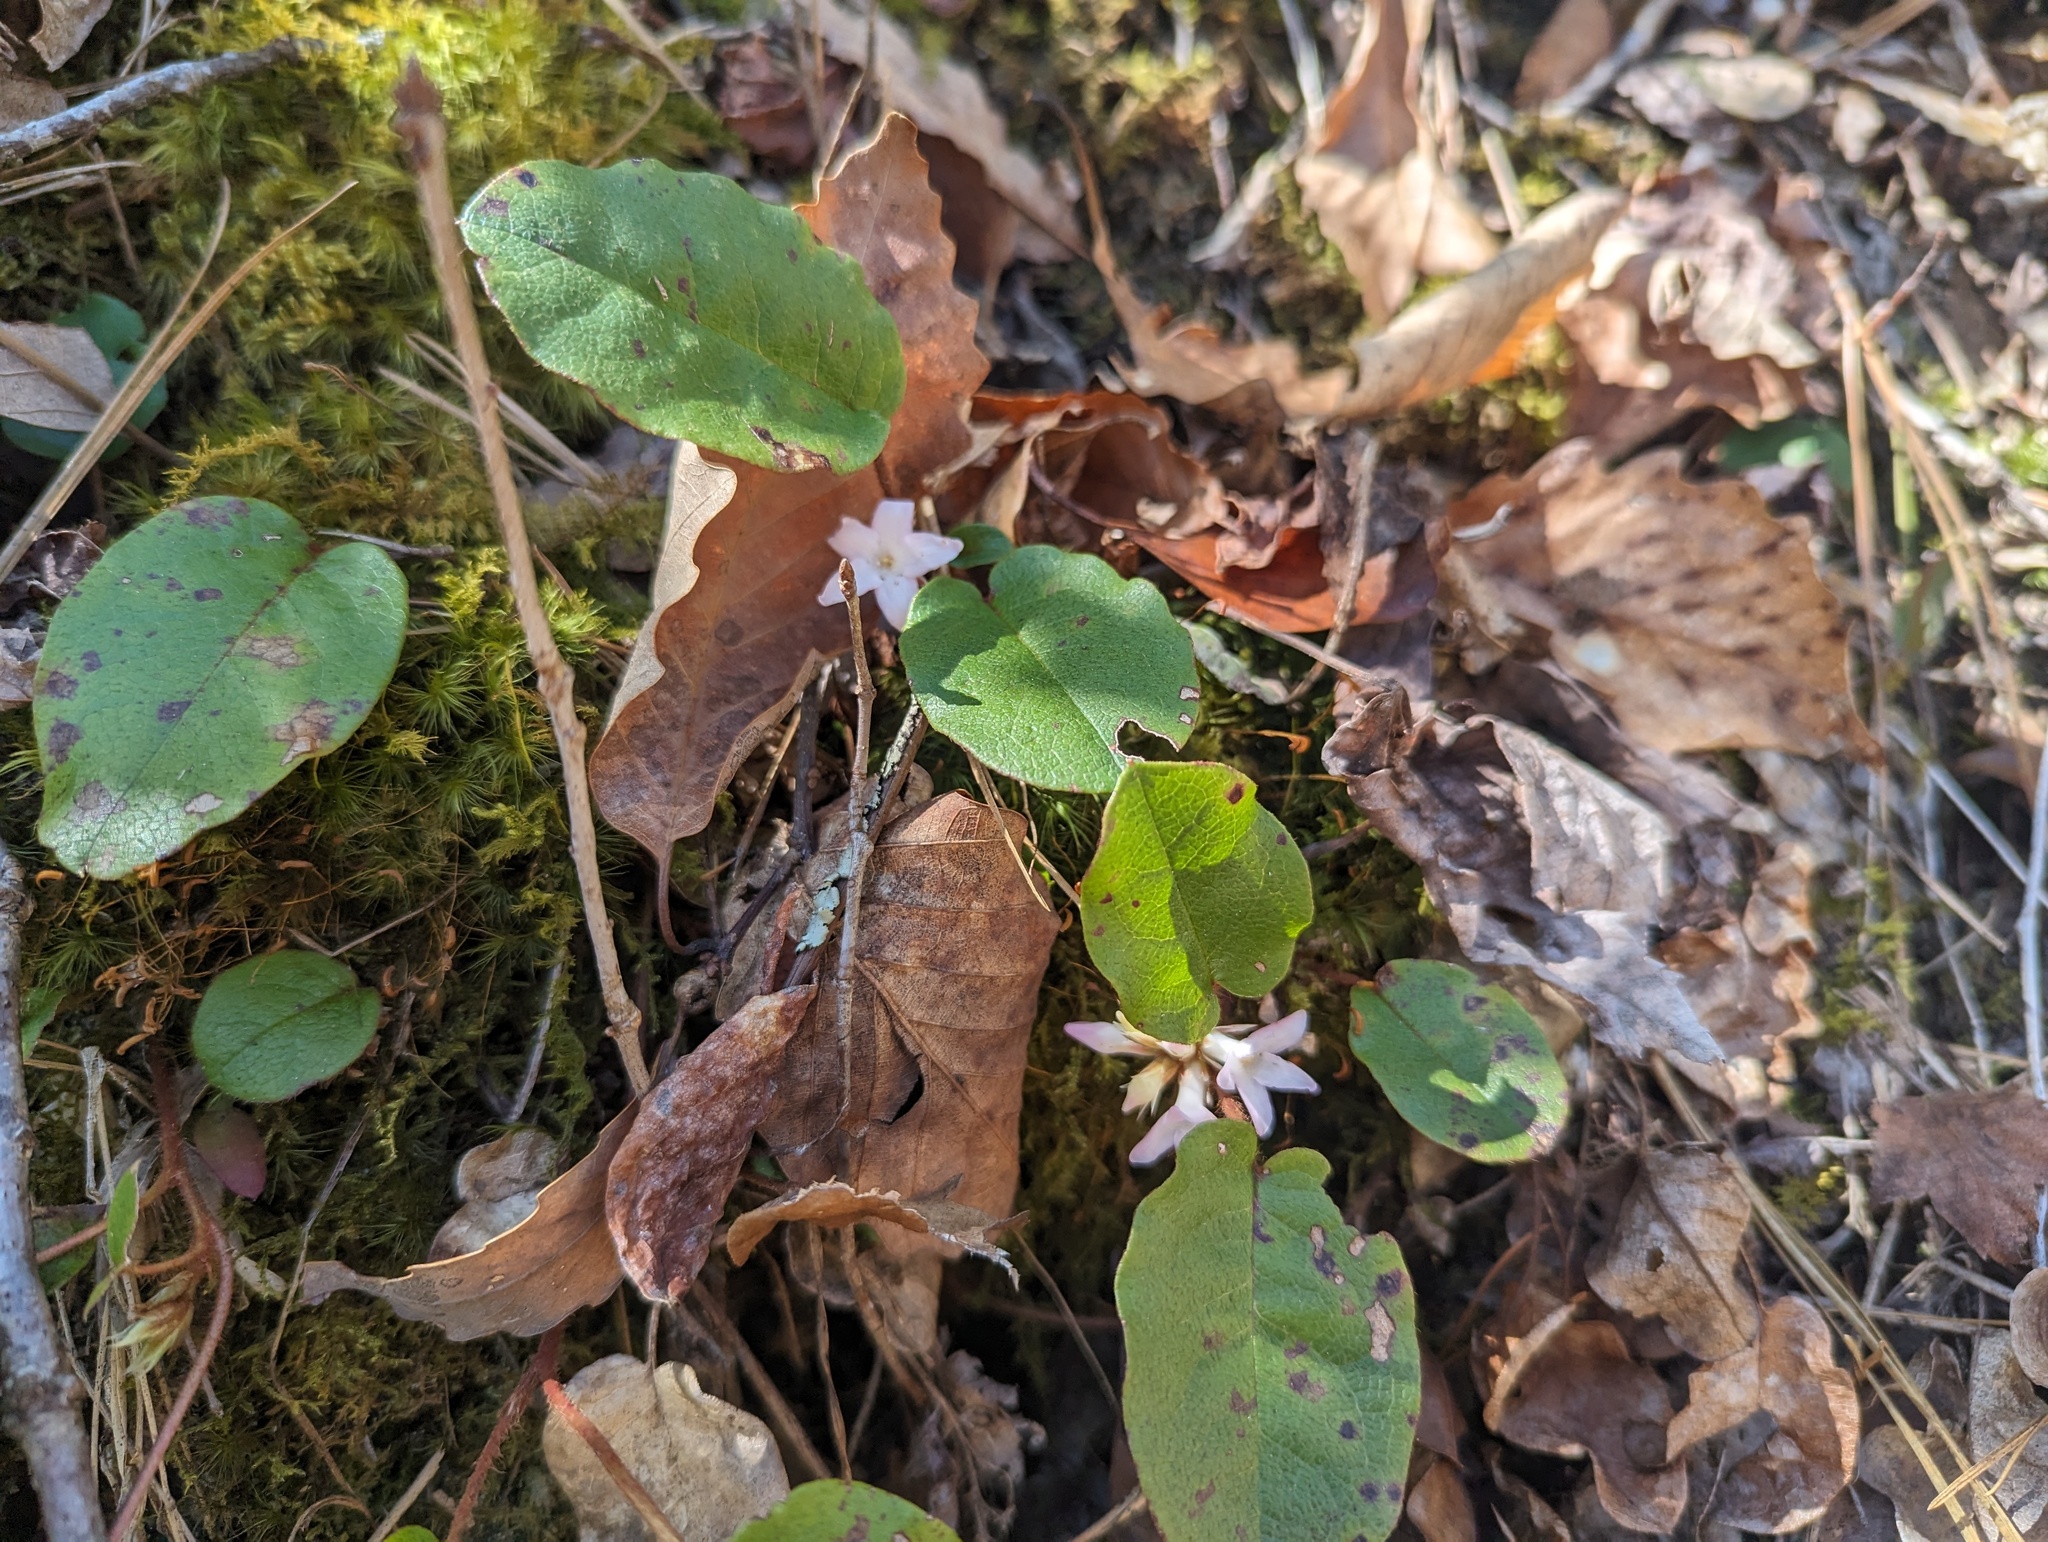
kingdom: Plantae
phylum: Tracheophyta
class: Magnoliopsida
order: Ericales
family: Ericaceae
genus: Epigaea
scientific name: Epigaea repens
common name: Gravelroot
